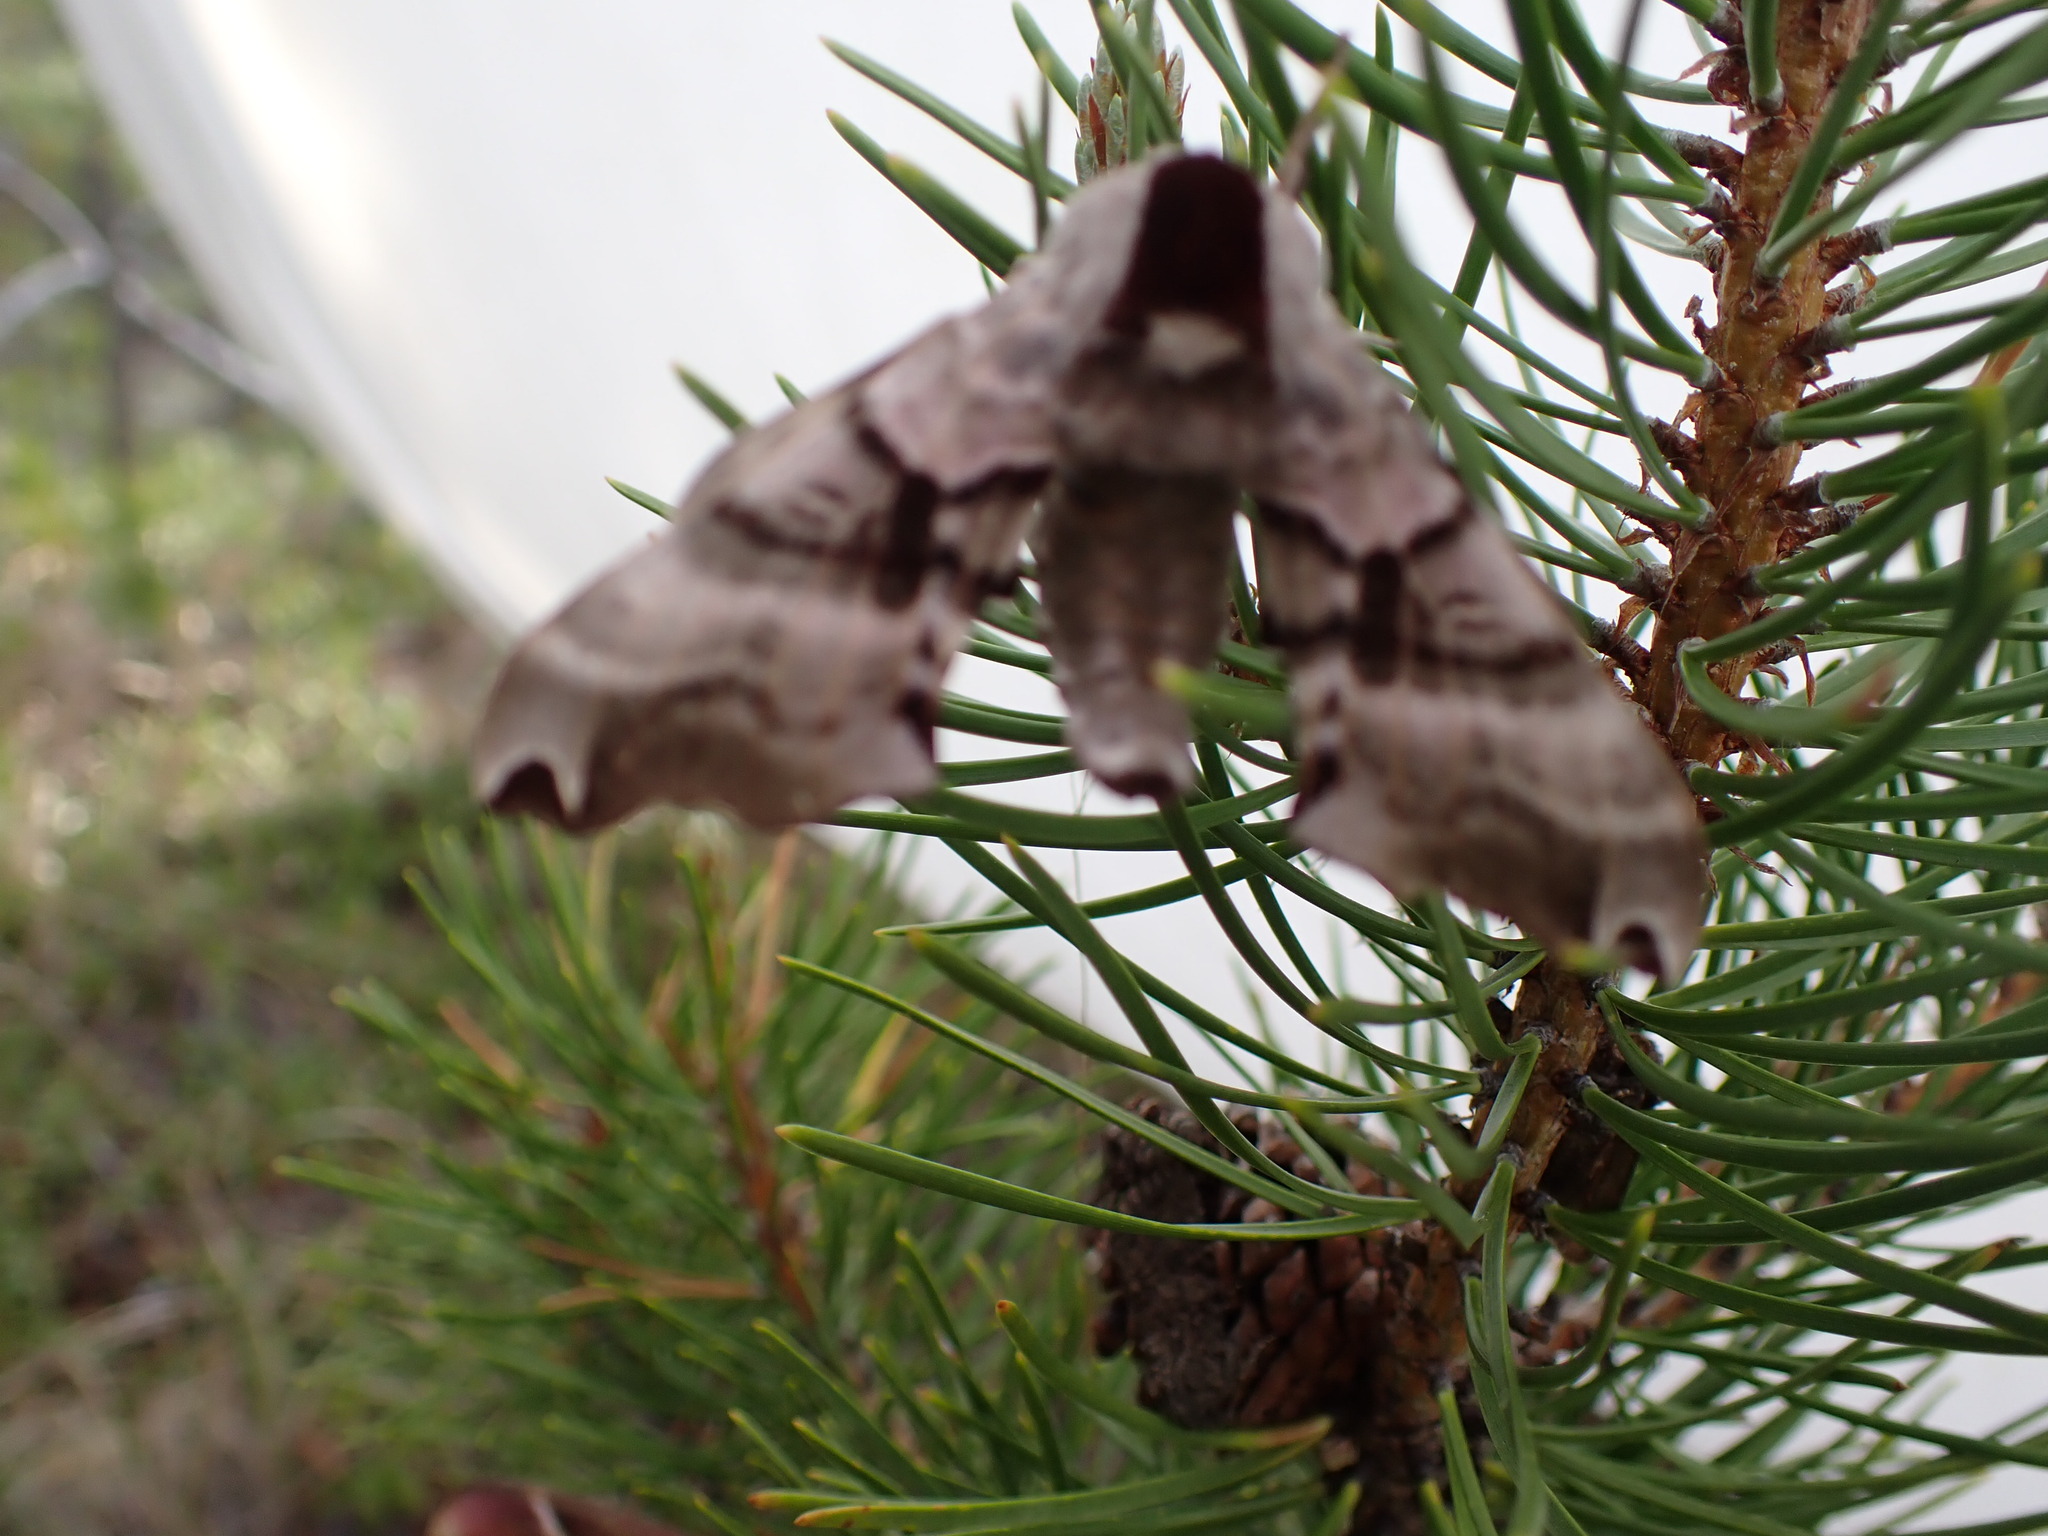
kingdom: Animalia
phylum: Arthropoda
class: Insecta
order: Lepidoptera
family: Sphingidae
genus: Smerinthus
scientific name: Smerinthus jamaicensis
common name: Twin spotted sphinx
